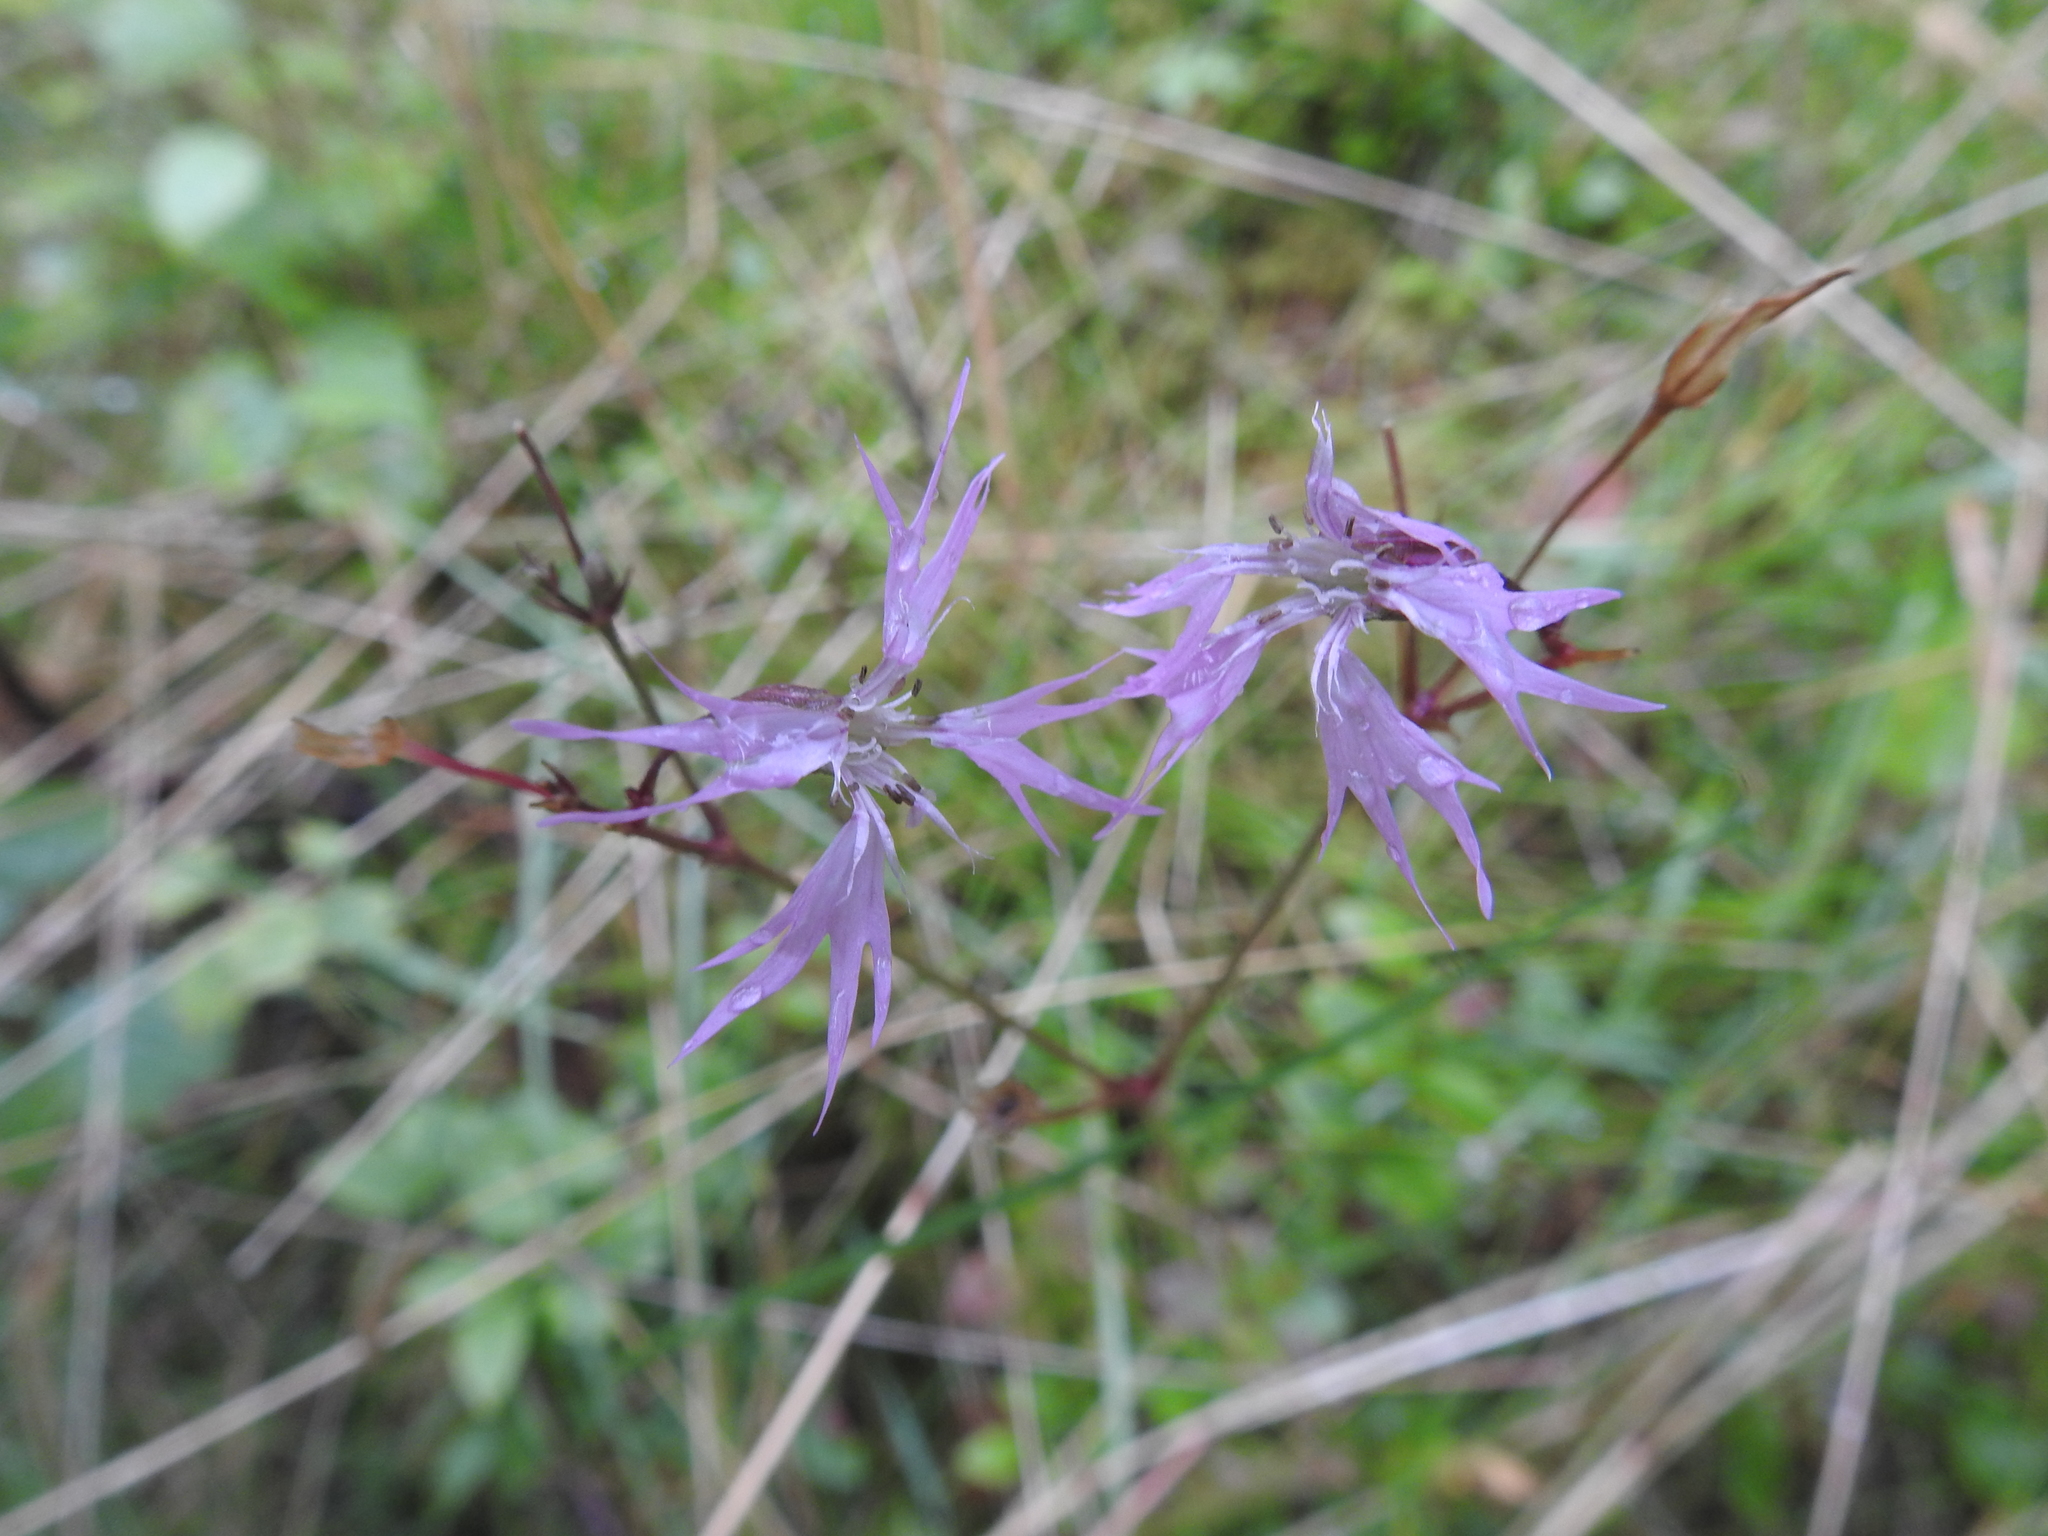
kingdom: Plantae
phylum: Tracheophyta
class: Magnoliopsida
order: Caryophyllales
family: Caryophyllaceae
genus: Silene
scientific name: Silene flos-cuculi
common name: Ragged-robin
